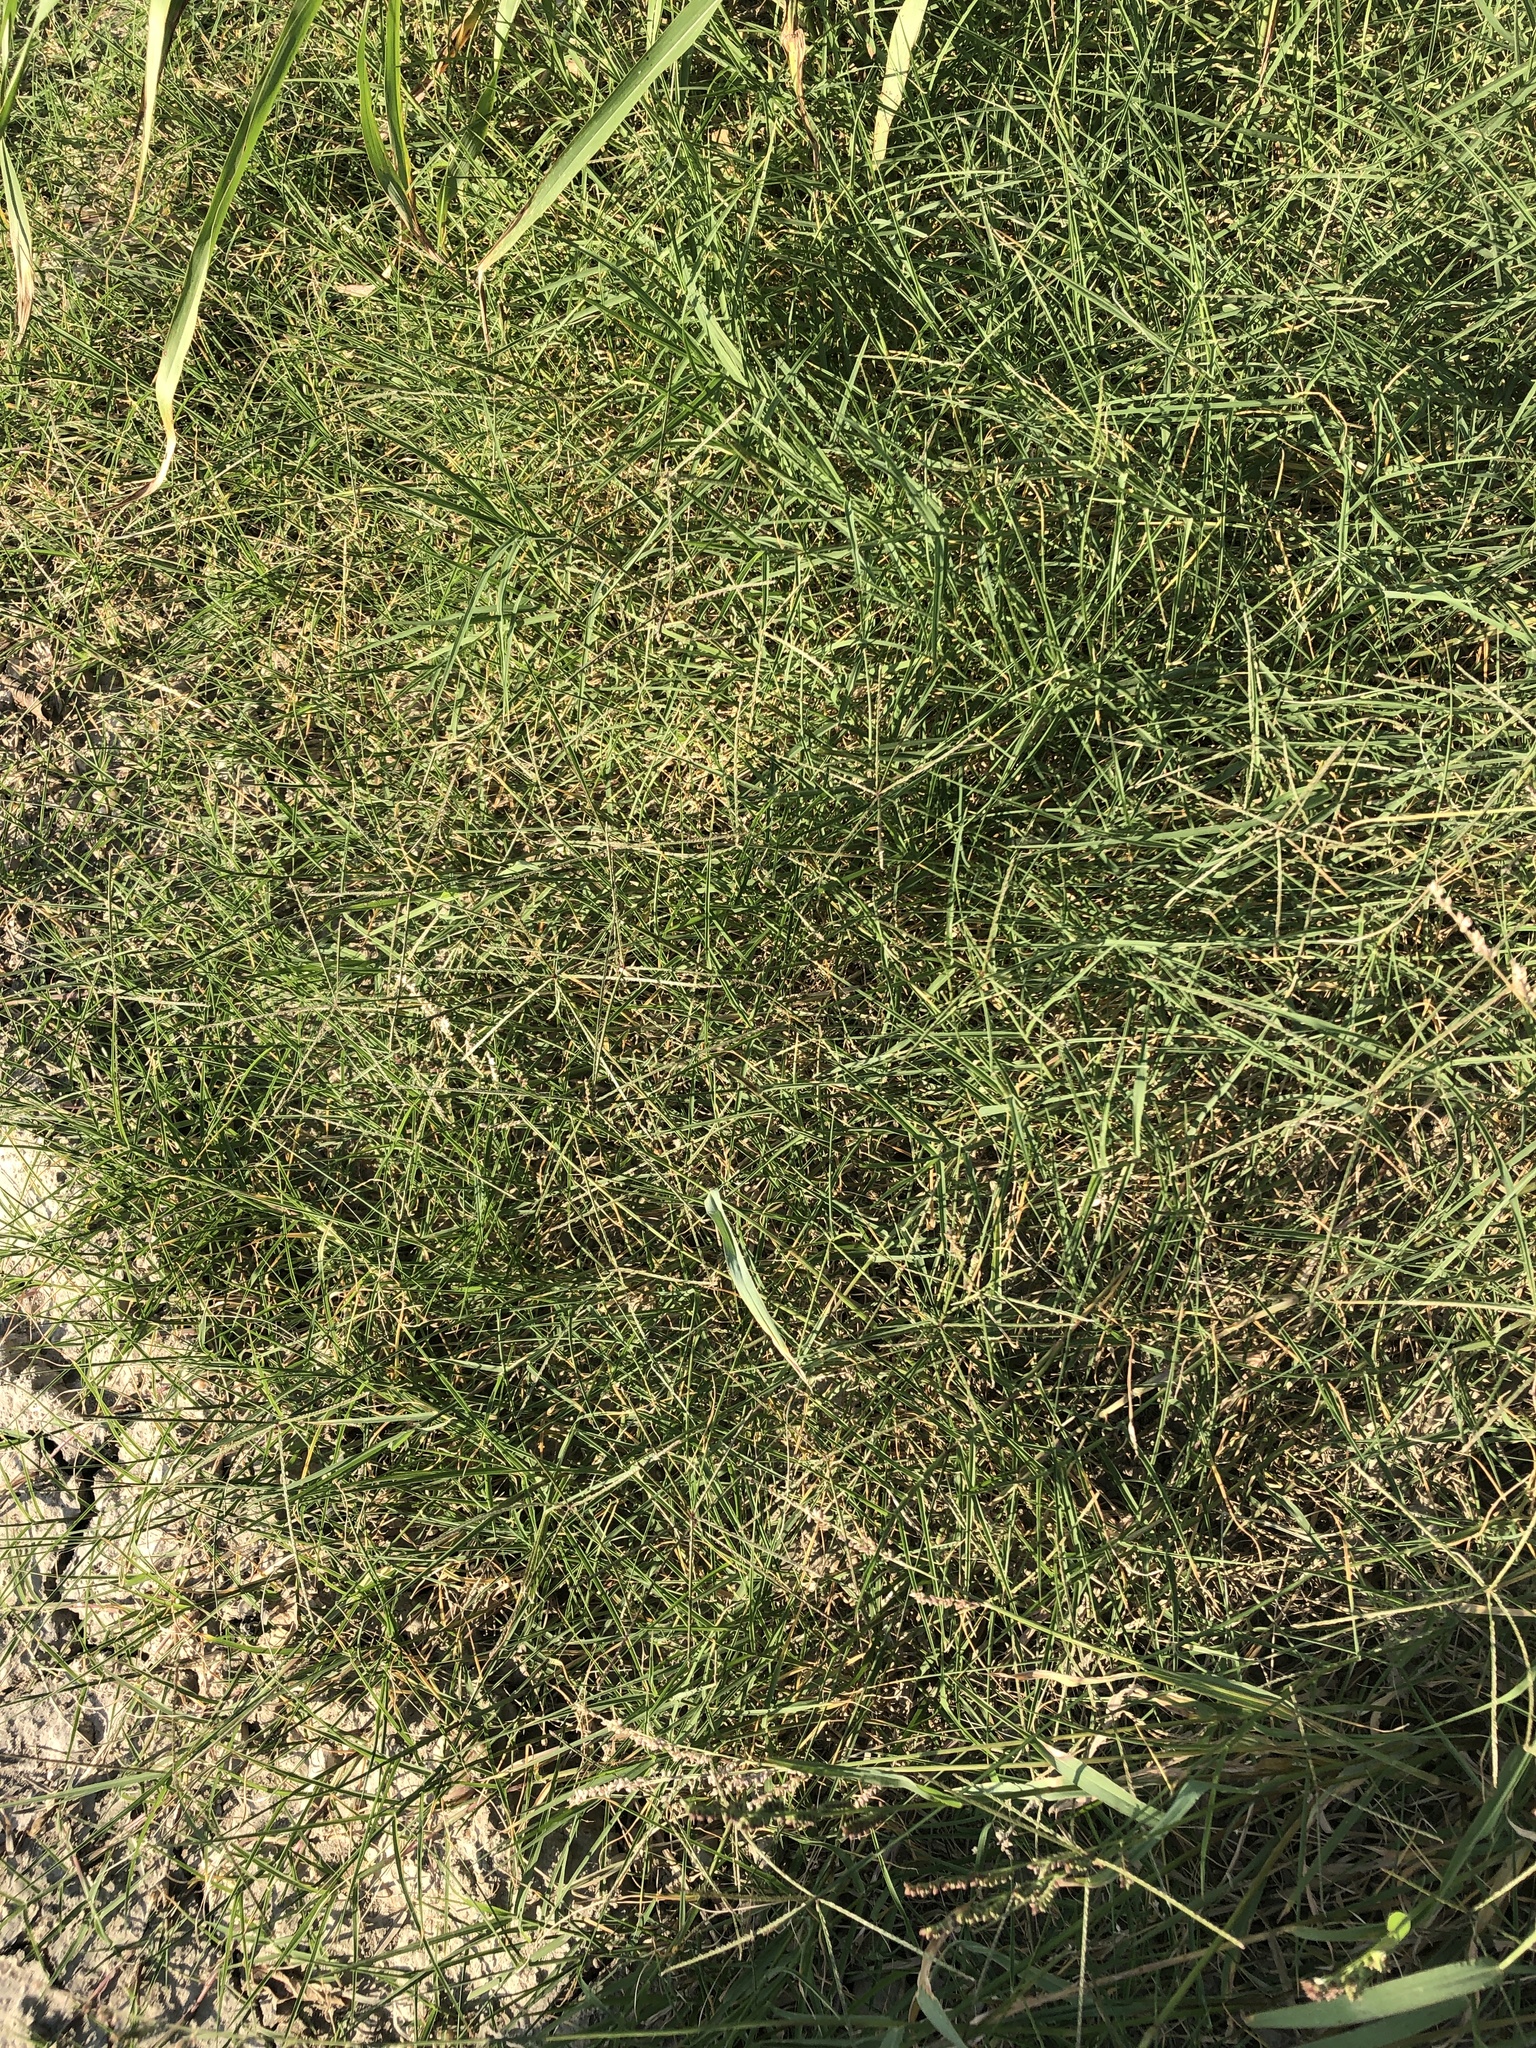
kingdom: Plantae
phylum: Tracheophyta
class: Liliopsida
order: Poales
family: Poaceae
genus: Cynodon
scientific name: Cynodon dactylon
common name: Bermuda grass
